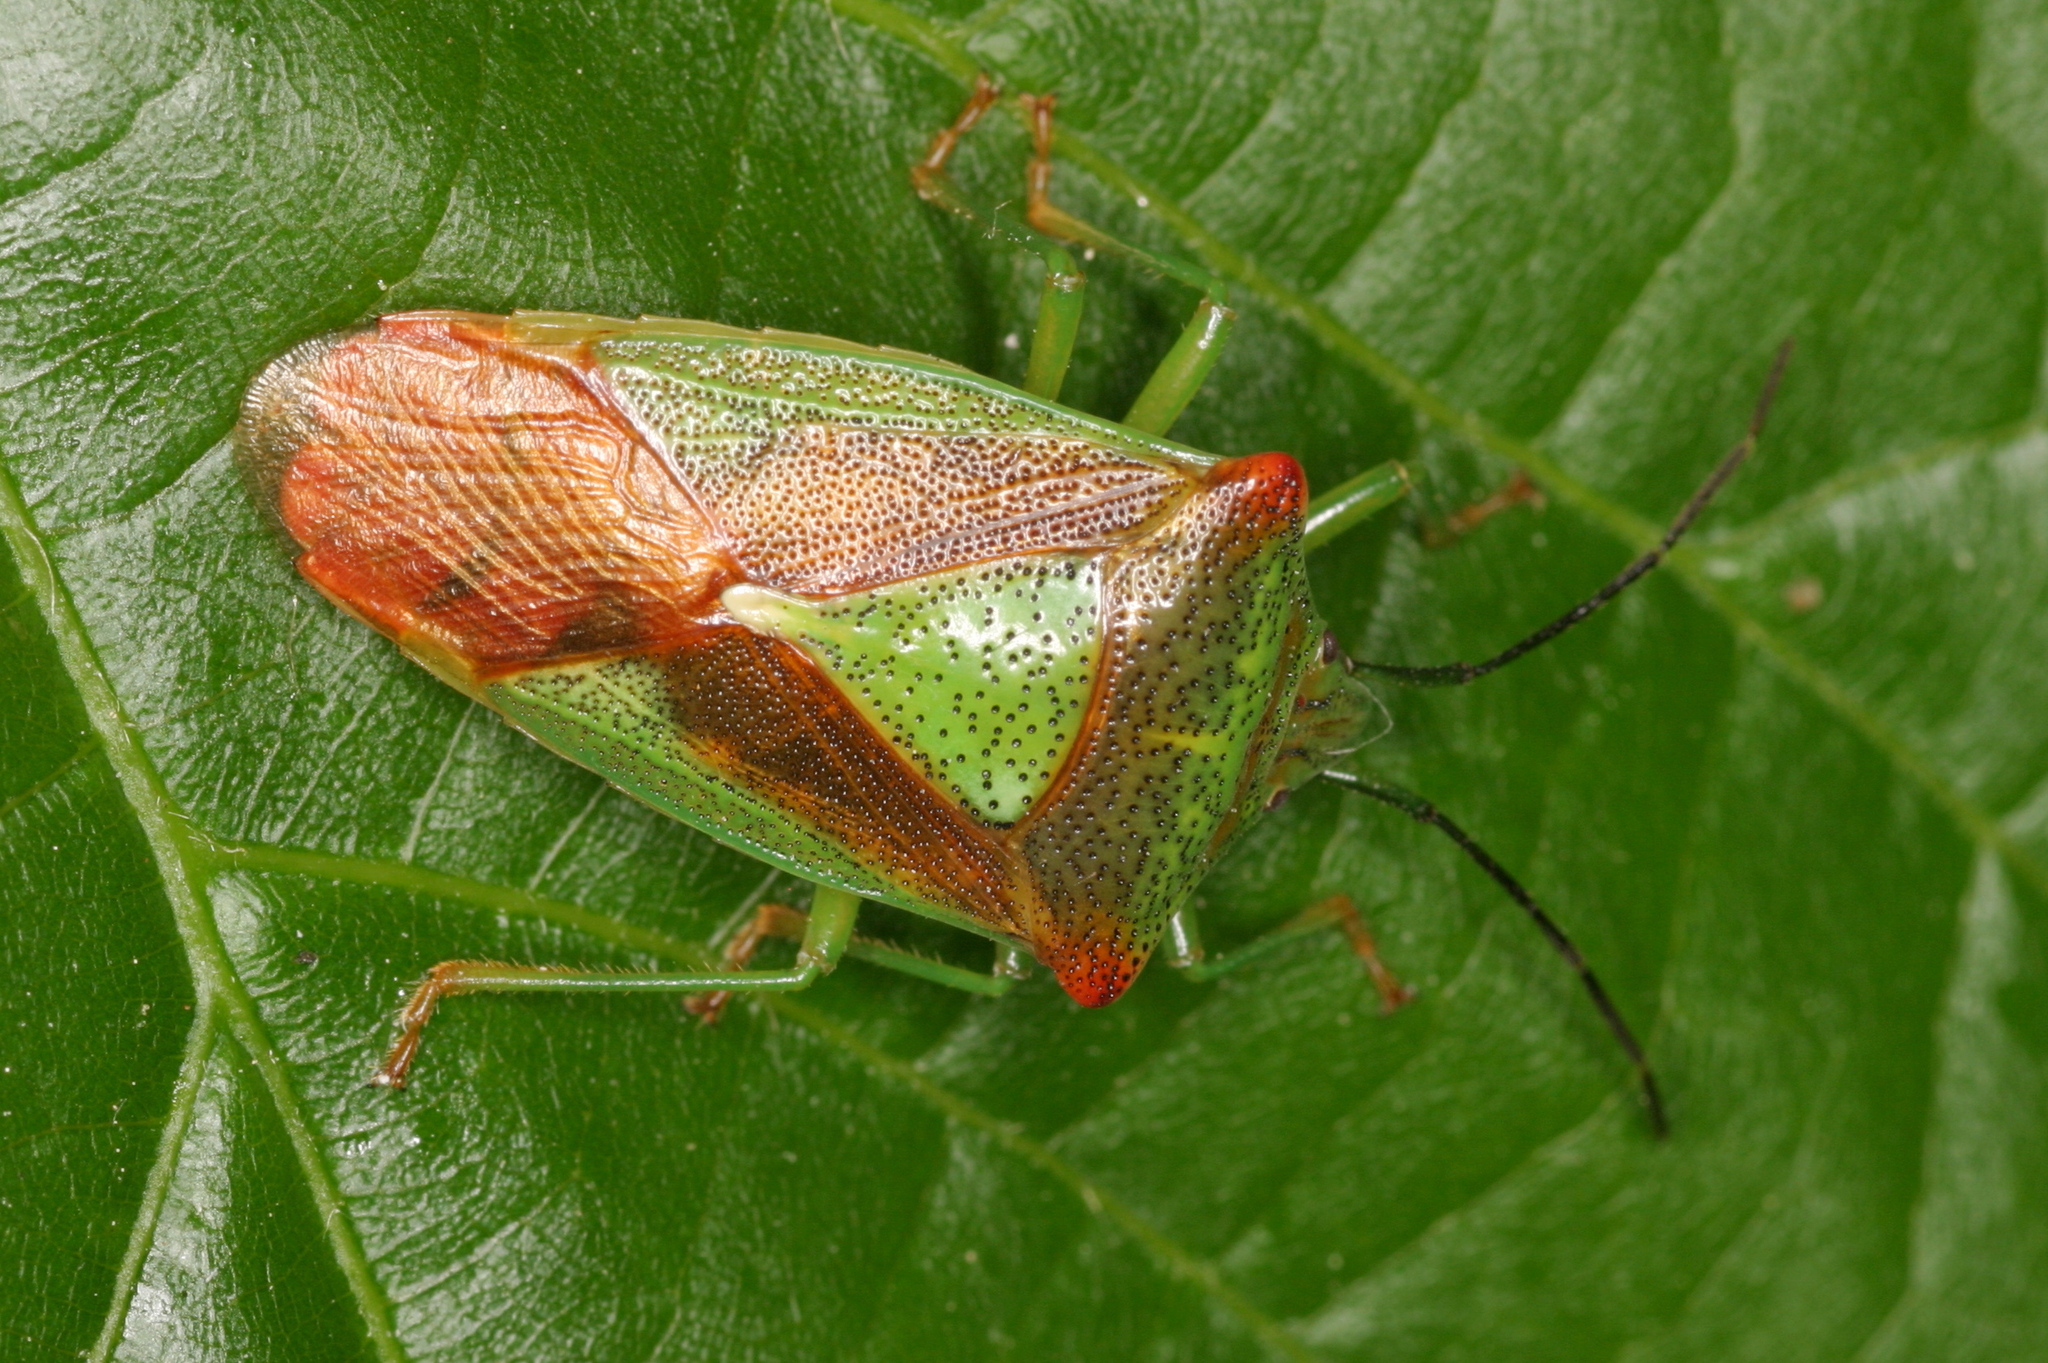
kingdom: Animalia
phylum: Arthropoda
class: Insecta
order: Hemiptera
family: Acanthosomatidae
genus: Acanthosoma
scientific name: Acanthosoma haemorrhoidale
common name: Hawthorn shieldbug
